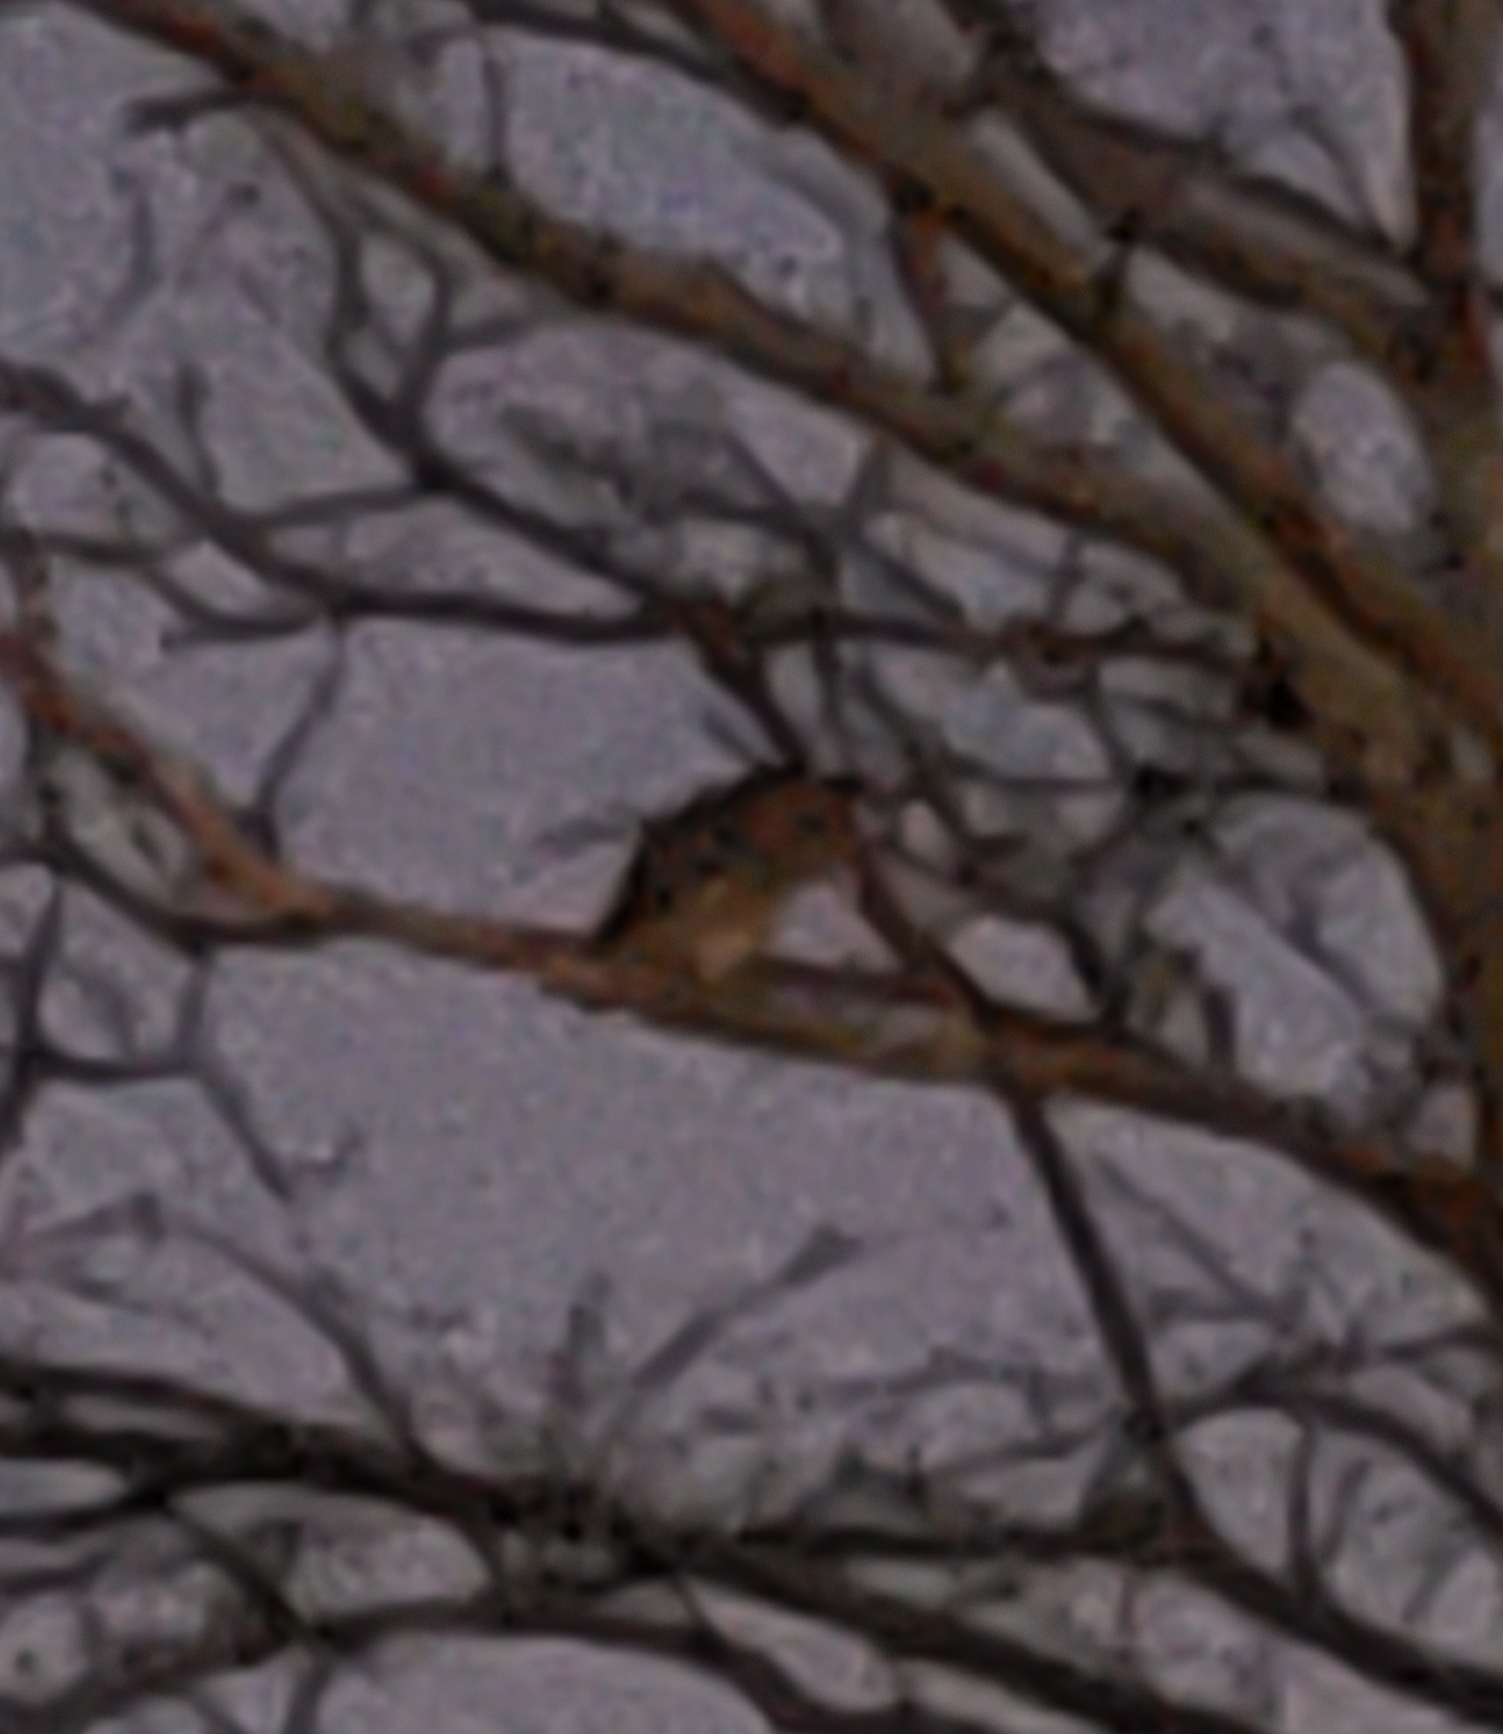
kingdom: Animalia
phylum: Chordata
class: Aves
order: Strigiformes
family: Strigidae
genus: Megascops
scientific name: Megascops asio
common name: Eastern screech-owl
